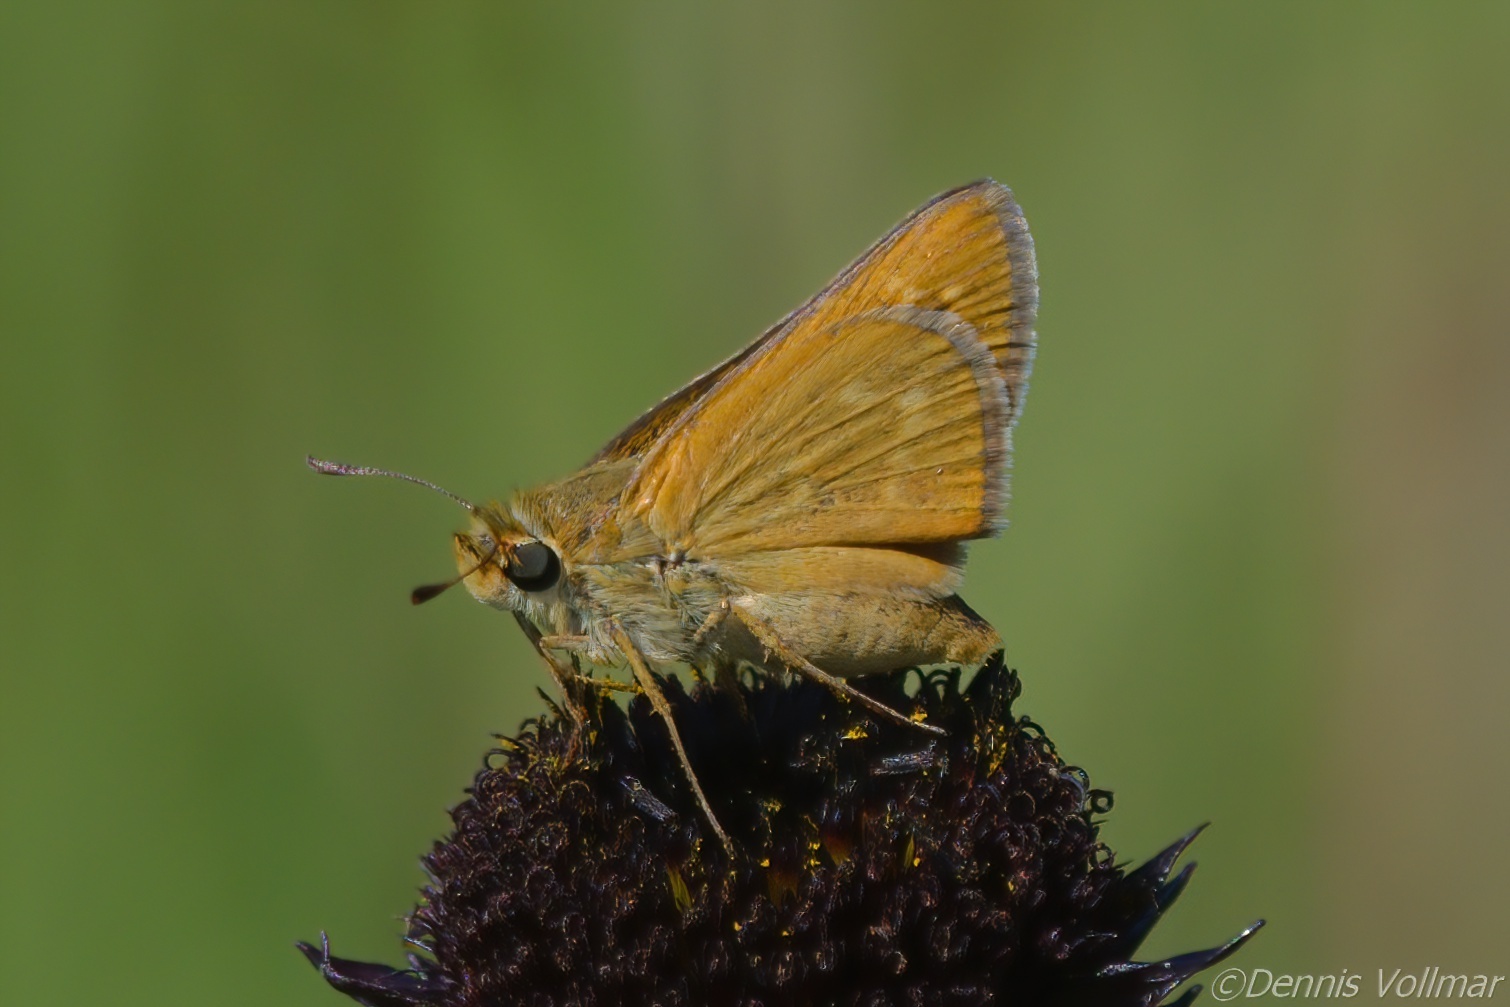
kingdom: Animalia
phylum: Arthropoda
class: Insecta
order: Lepidoptera
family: Hesperiidae
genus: Hesperia
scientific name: Hesperia meskei
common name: Meske's skipper
